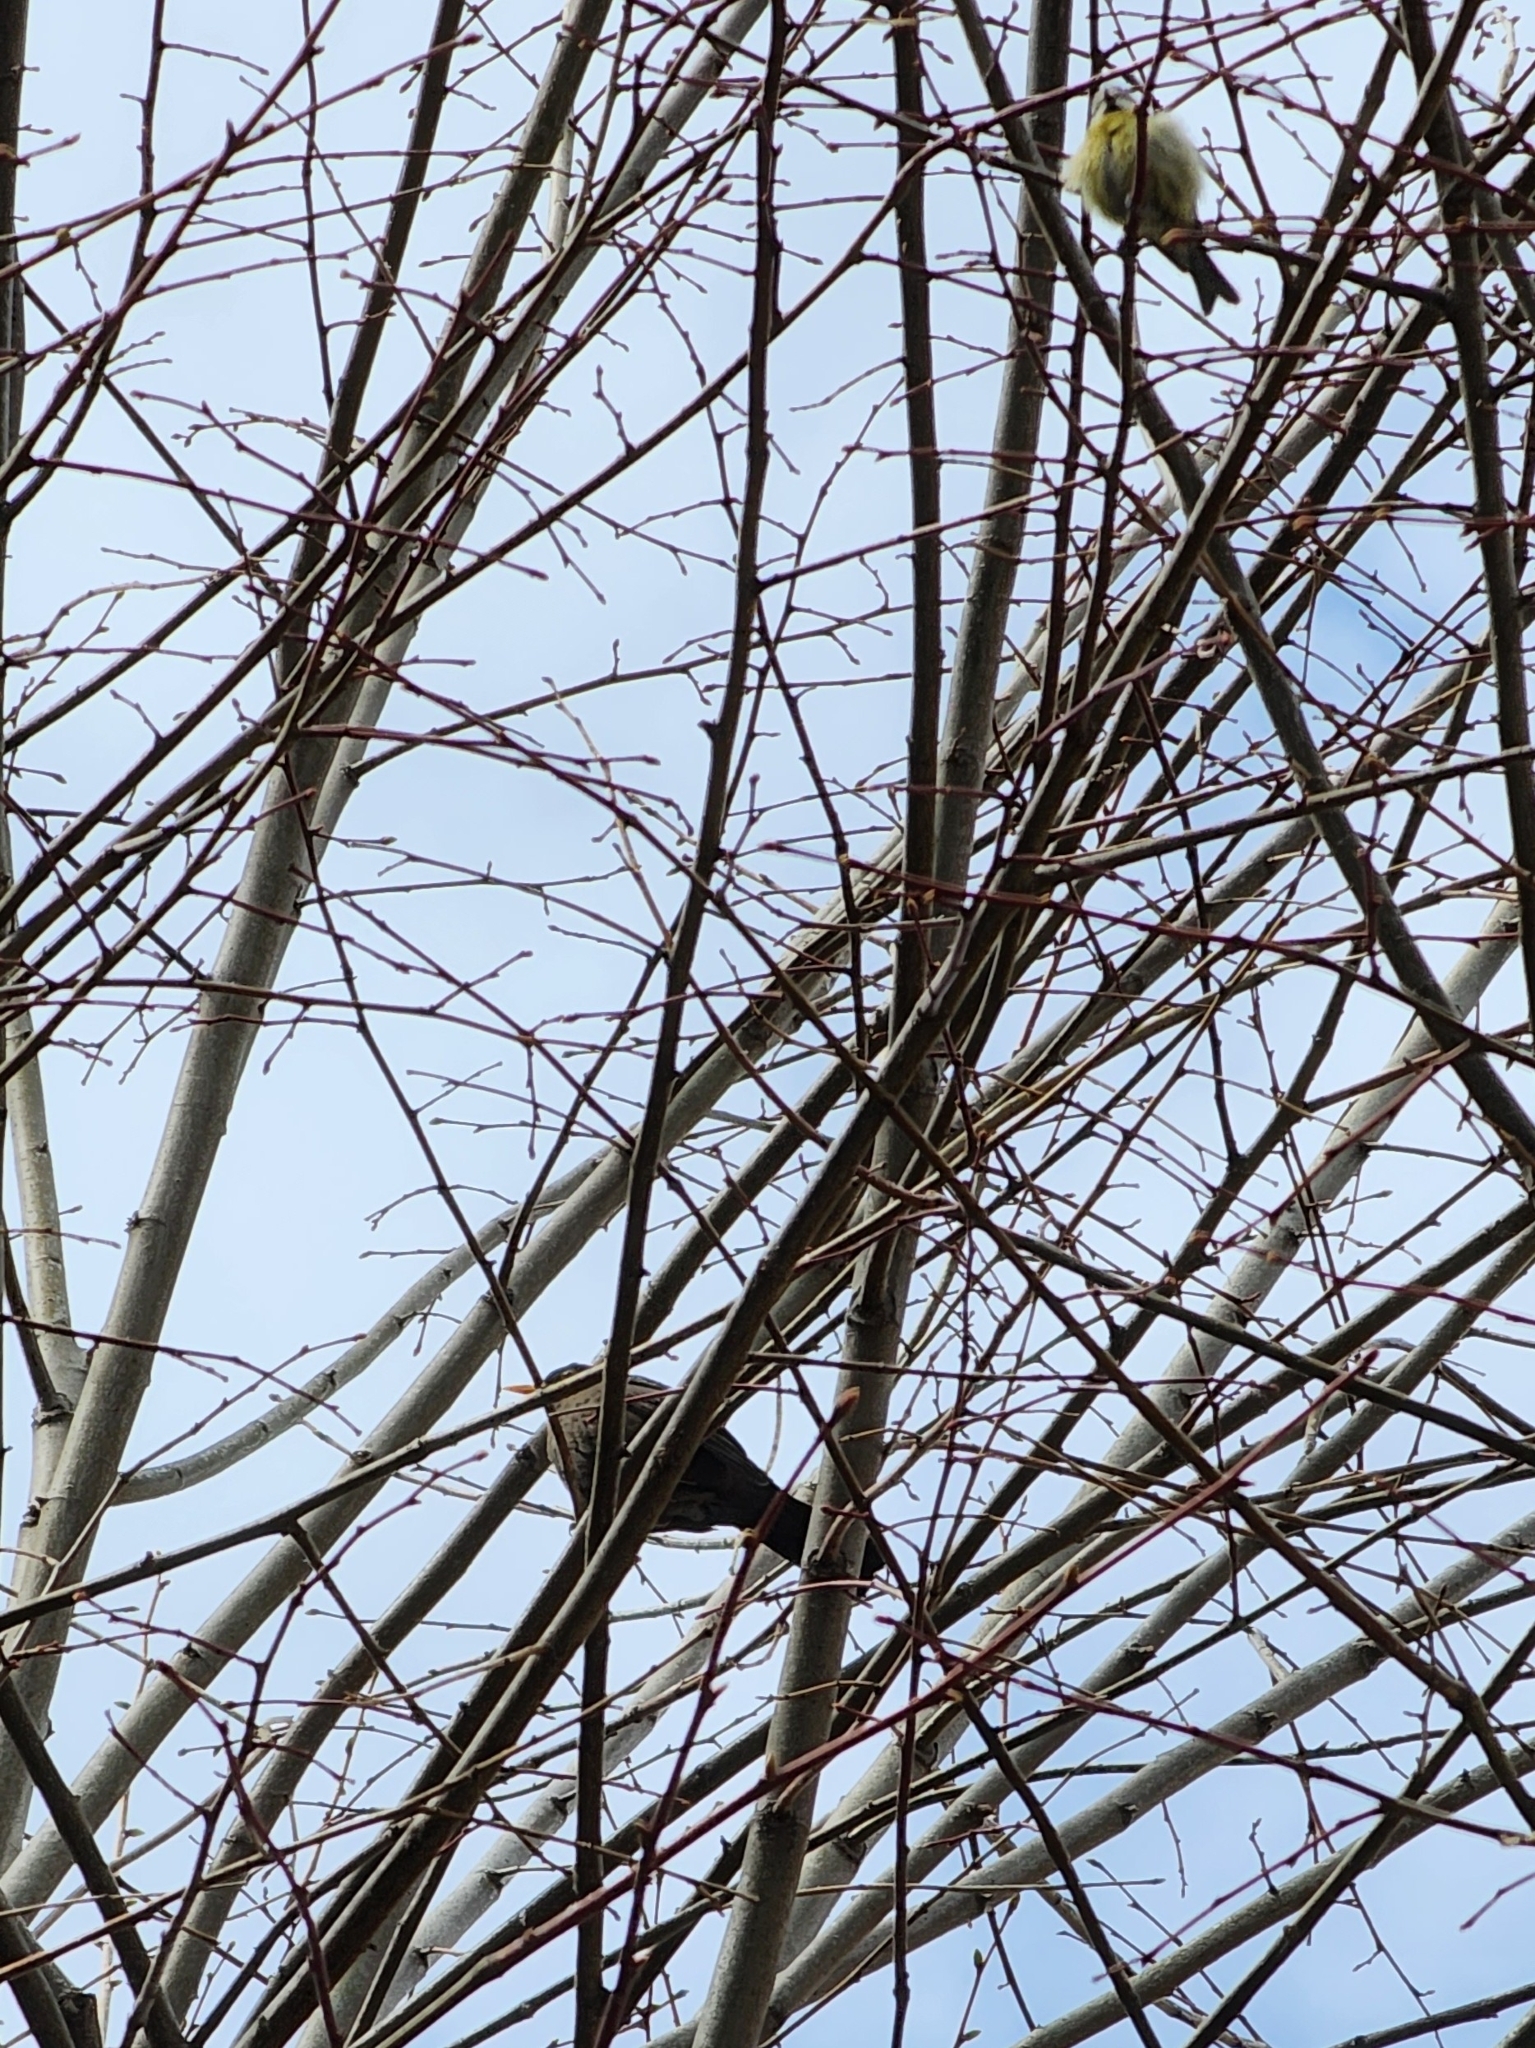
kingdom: Animalia
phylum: Chordata
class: Aves
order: Passeriformes
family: Turdidae
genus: Turdus
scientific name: Turdus merula
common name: Common blackbird
